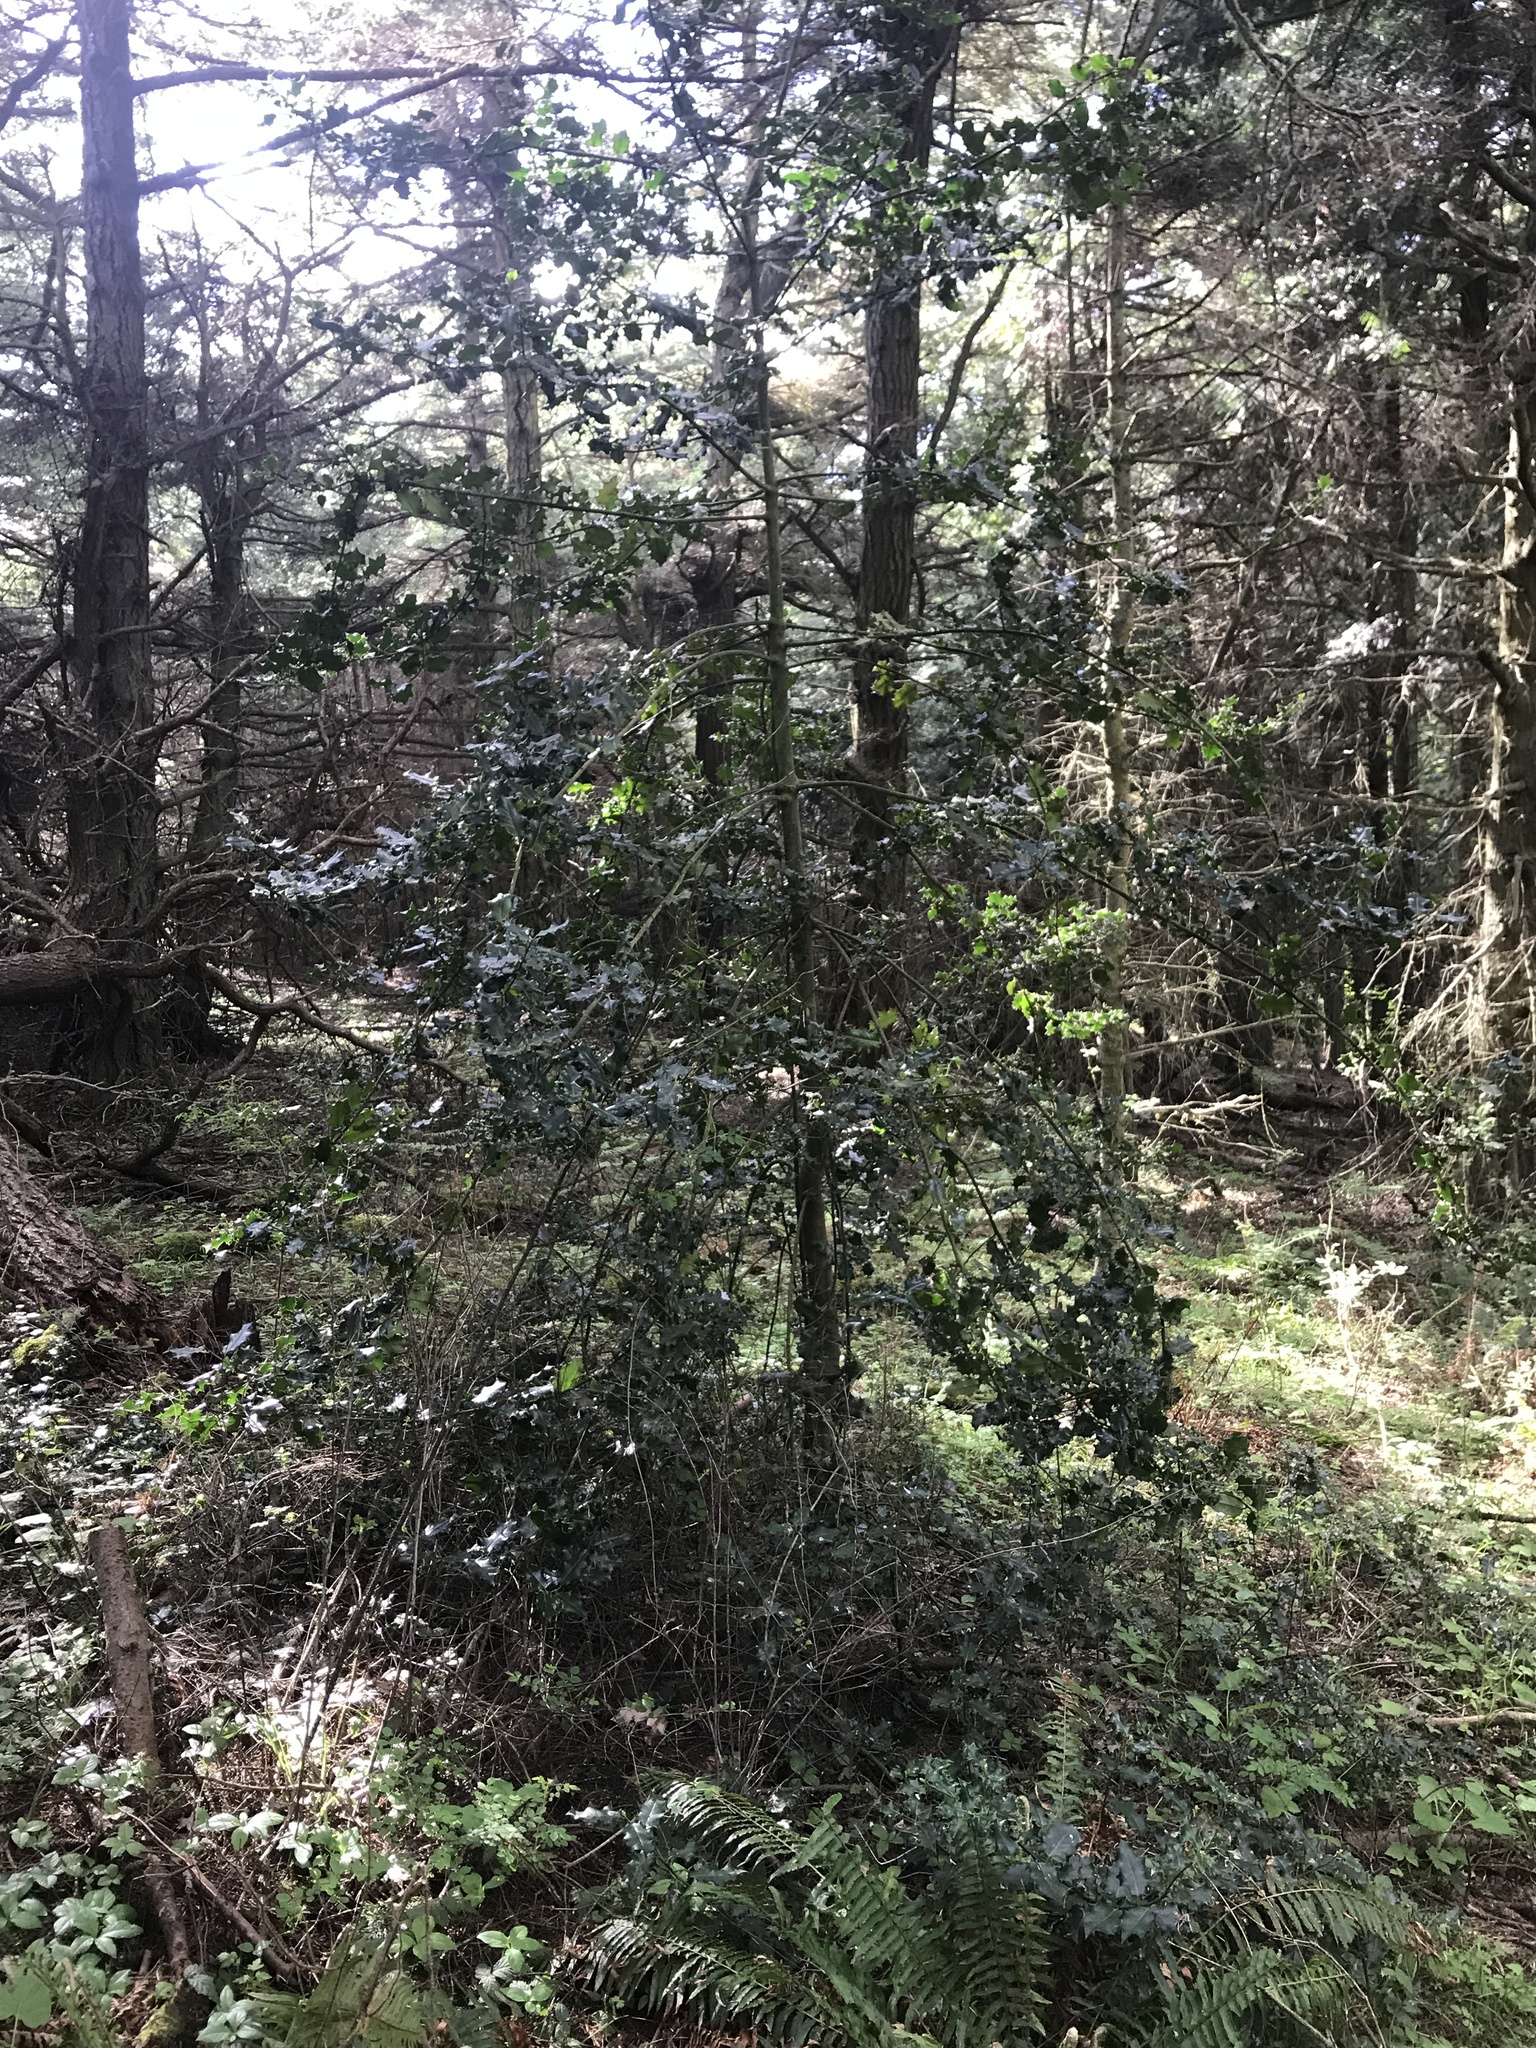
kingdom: Plantae
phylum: Tracheophyta
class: Magnoliopsida
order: Aquifoliales
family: Aquifoliaceae
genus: Ilex
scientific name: Ilex aquifolium
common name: English holly
